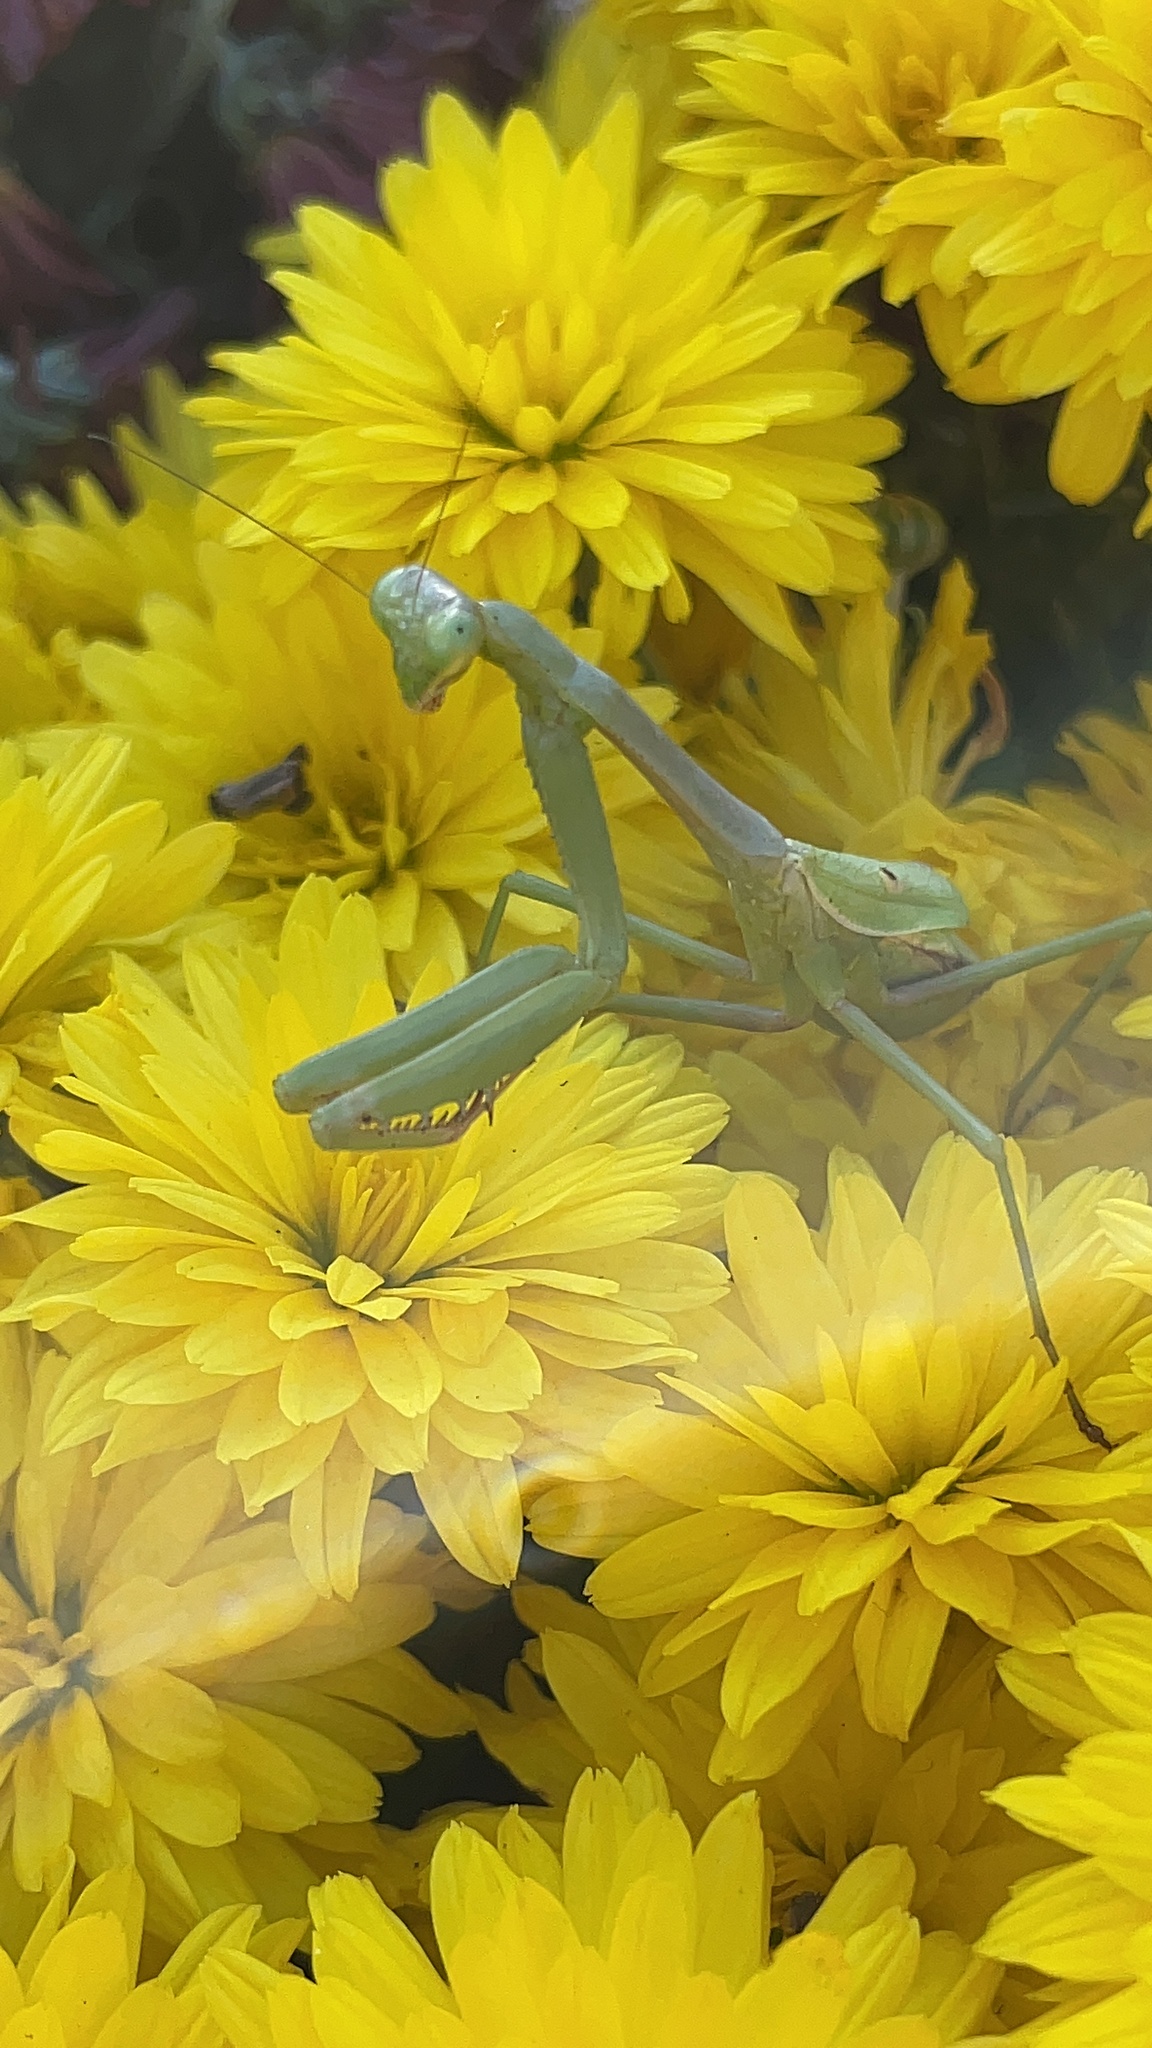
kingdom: Animalia
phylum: Arthropoda
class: Insecta
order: Mantodea
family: Mantidae
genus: Stagmomantis
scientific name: Stagmomantis carolina
